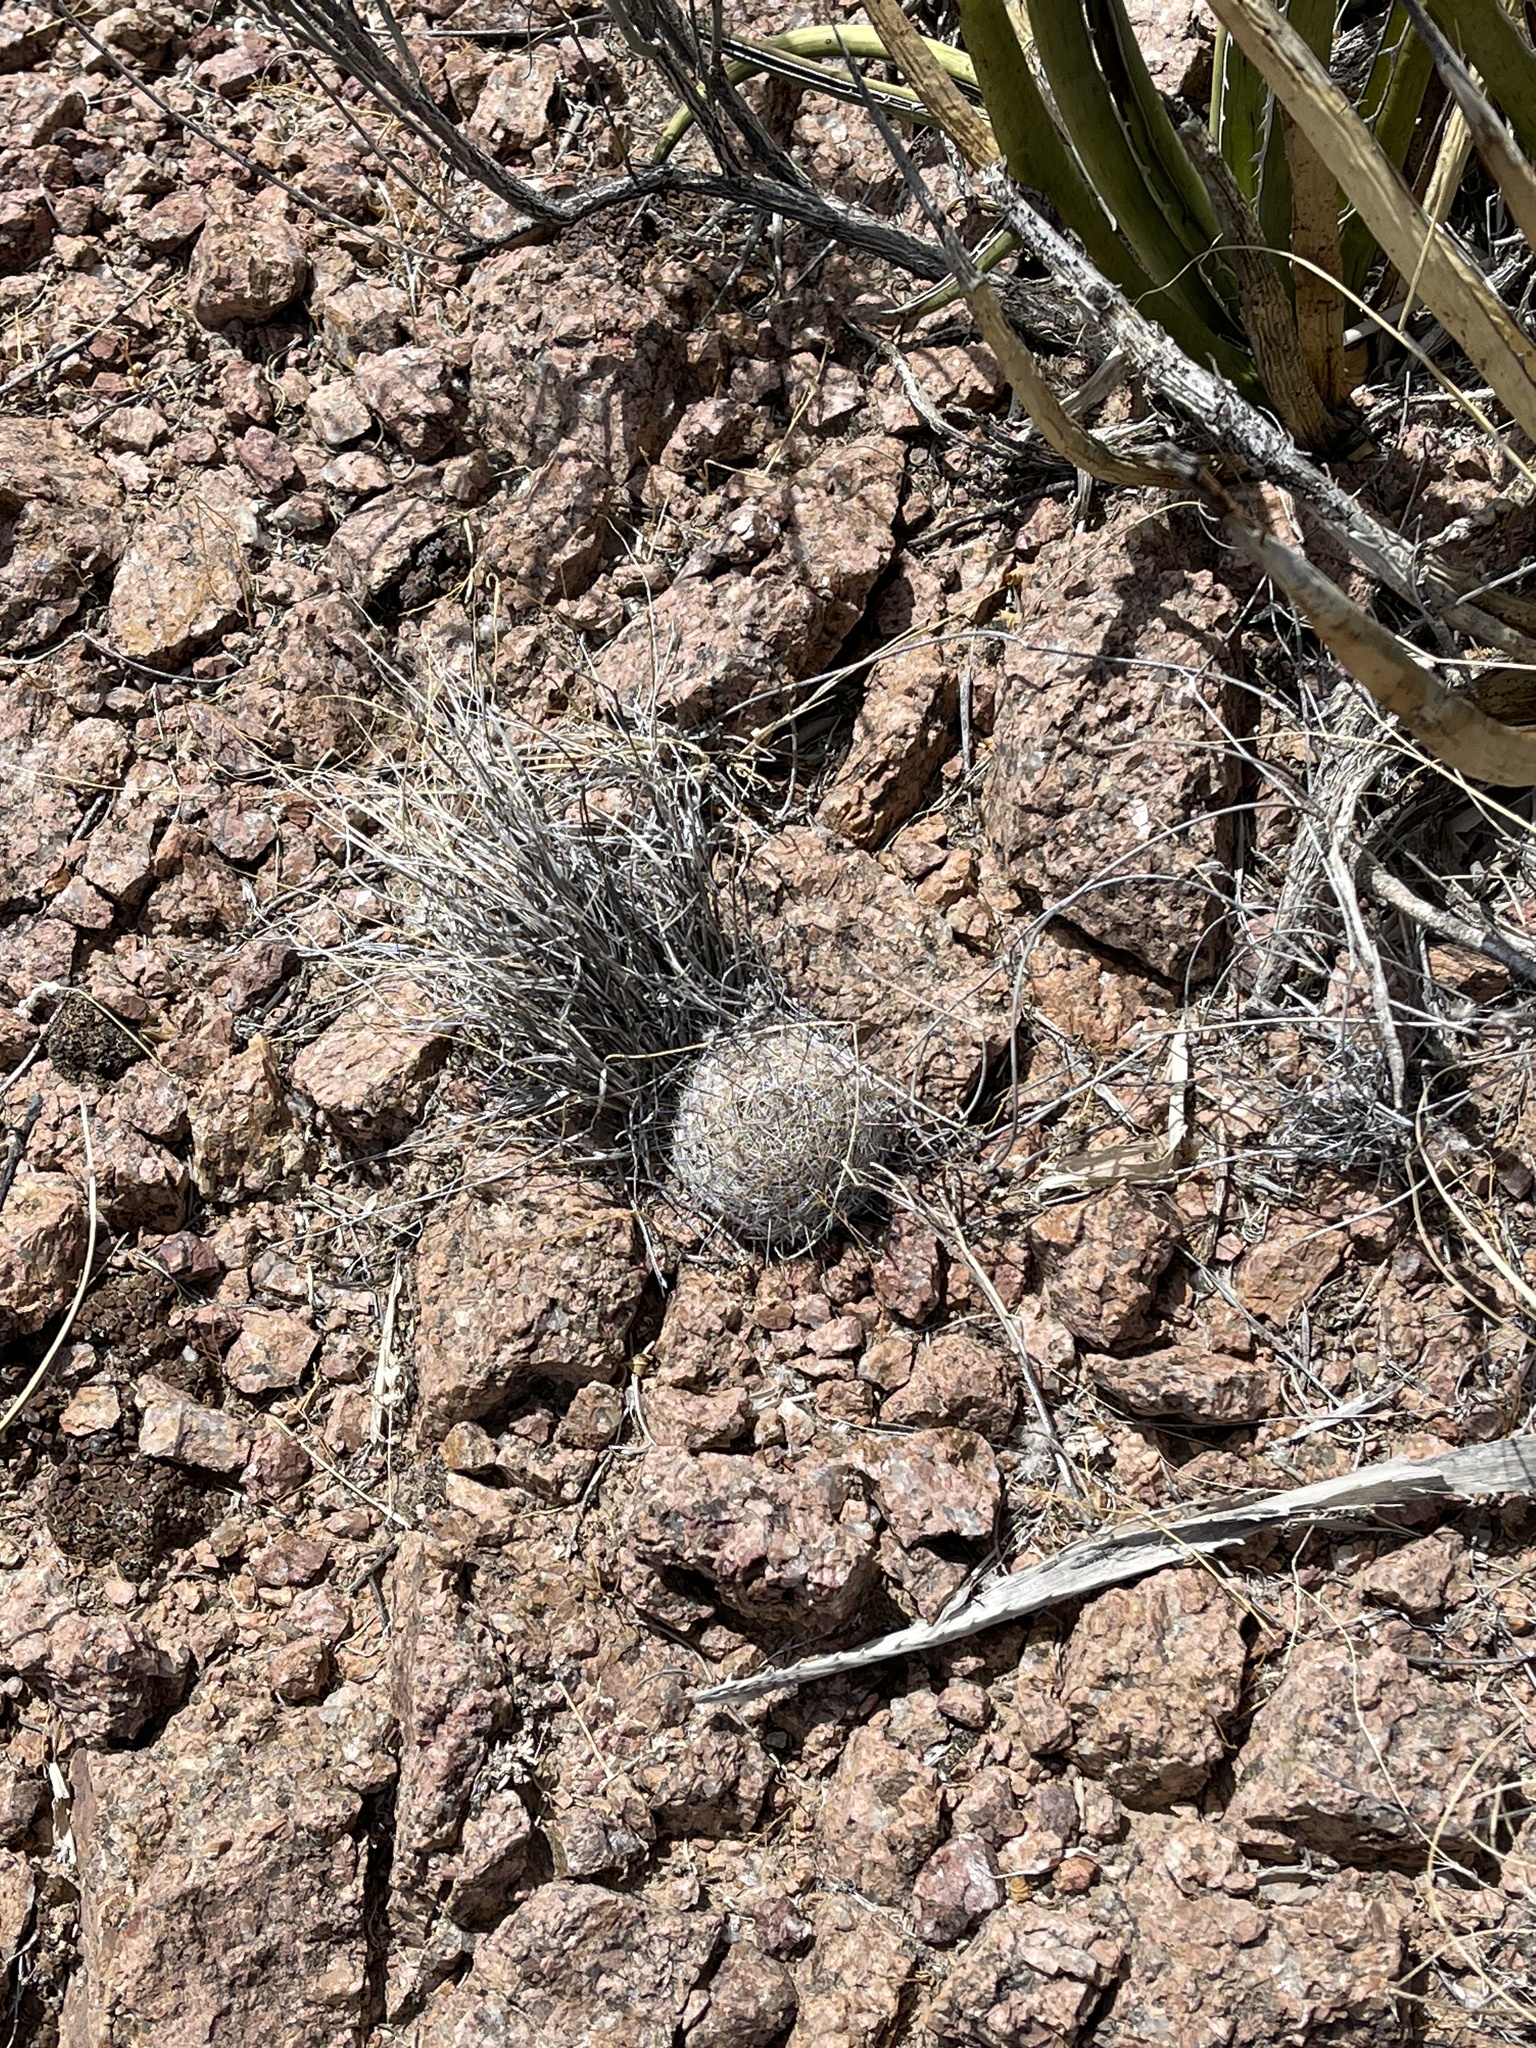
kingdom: Plantae
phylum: Tracheophyta
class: Magnoliopsida
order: Caryophyllales
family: Cactaceae
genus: Cochemiea
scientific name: Cochemiea grahamii
